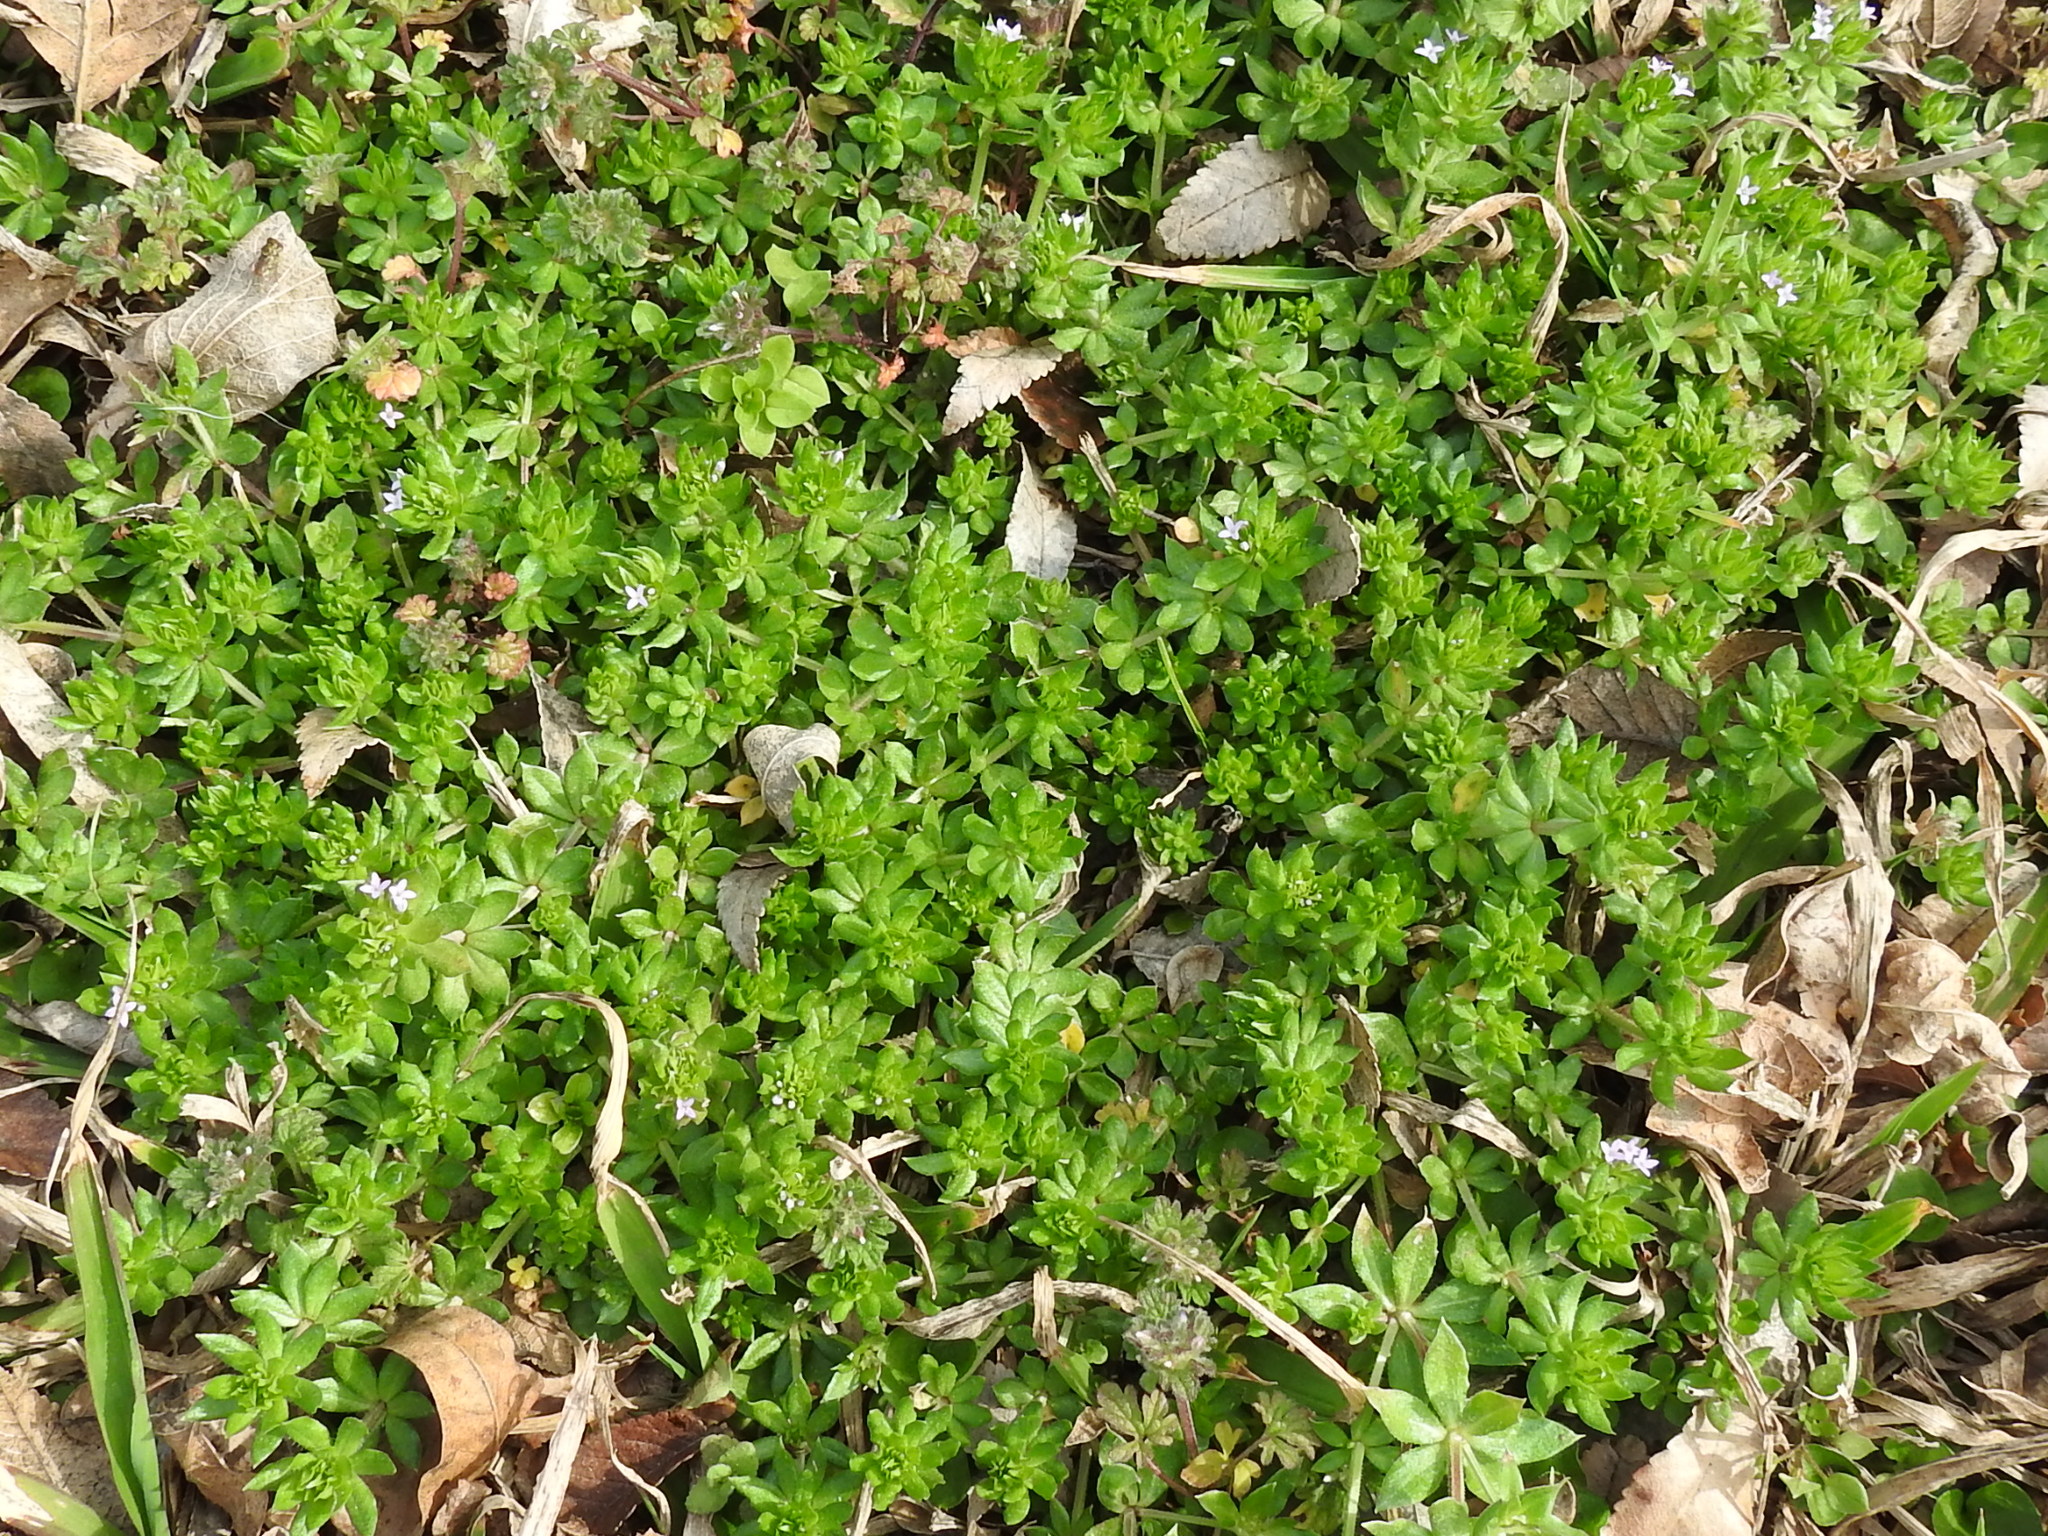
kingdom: Plantae
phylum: Tracheophyta
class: Magnoliopsida
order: Gentianales
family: Rubiaceae
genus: Sherardia
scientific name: Sherardia arvensis
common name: Field madder
